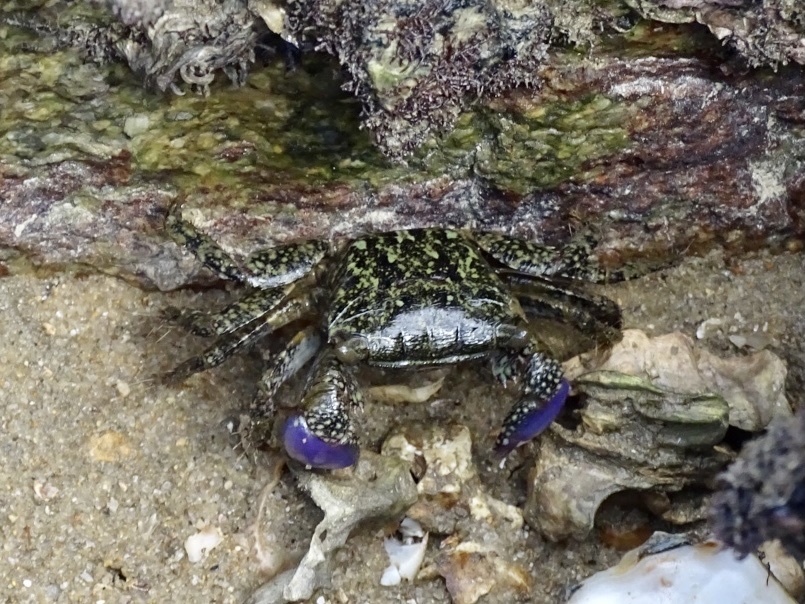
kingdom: Animalia
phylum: Arthropoda
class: Malacostraca
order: Decapoda
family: Grapsidae
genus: Metopograpsus
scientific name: Metopograpsus frontalis
